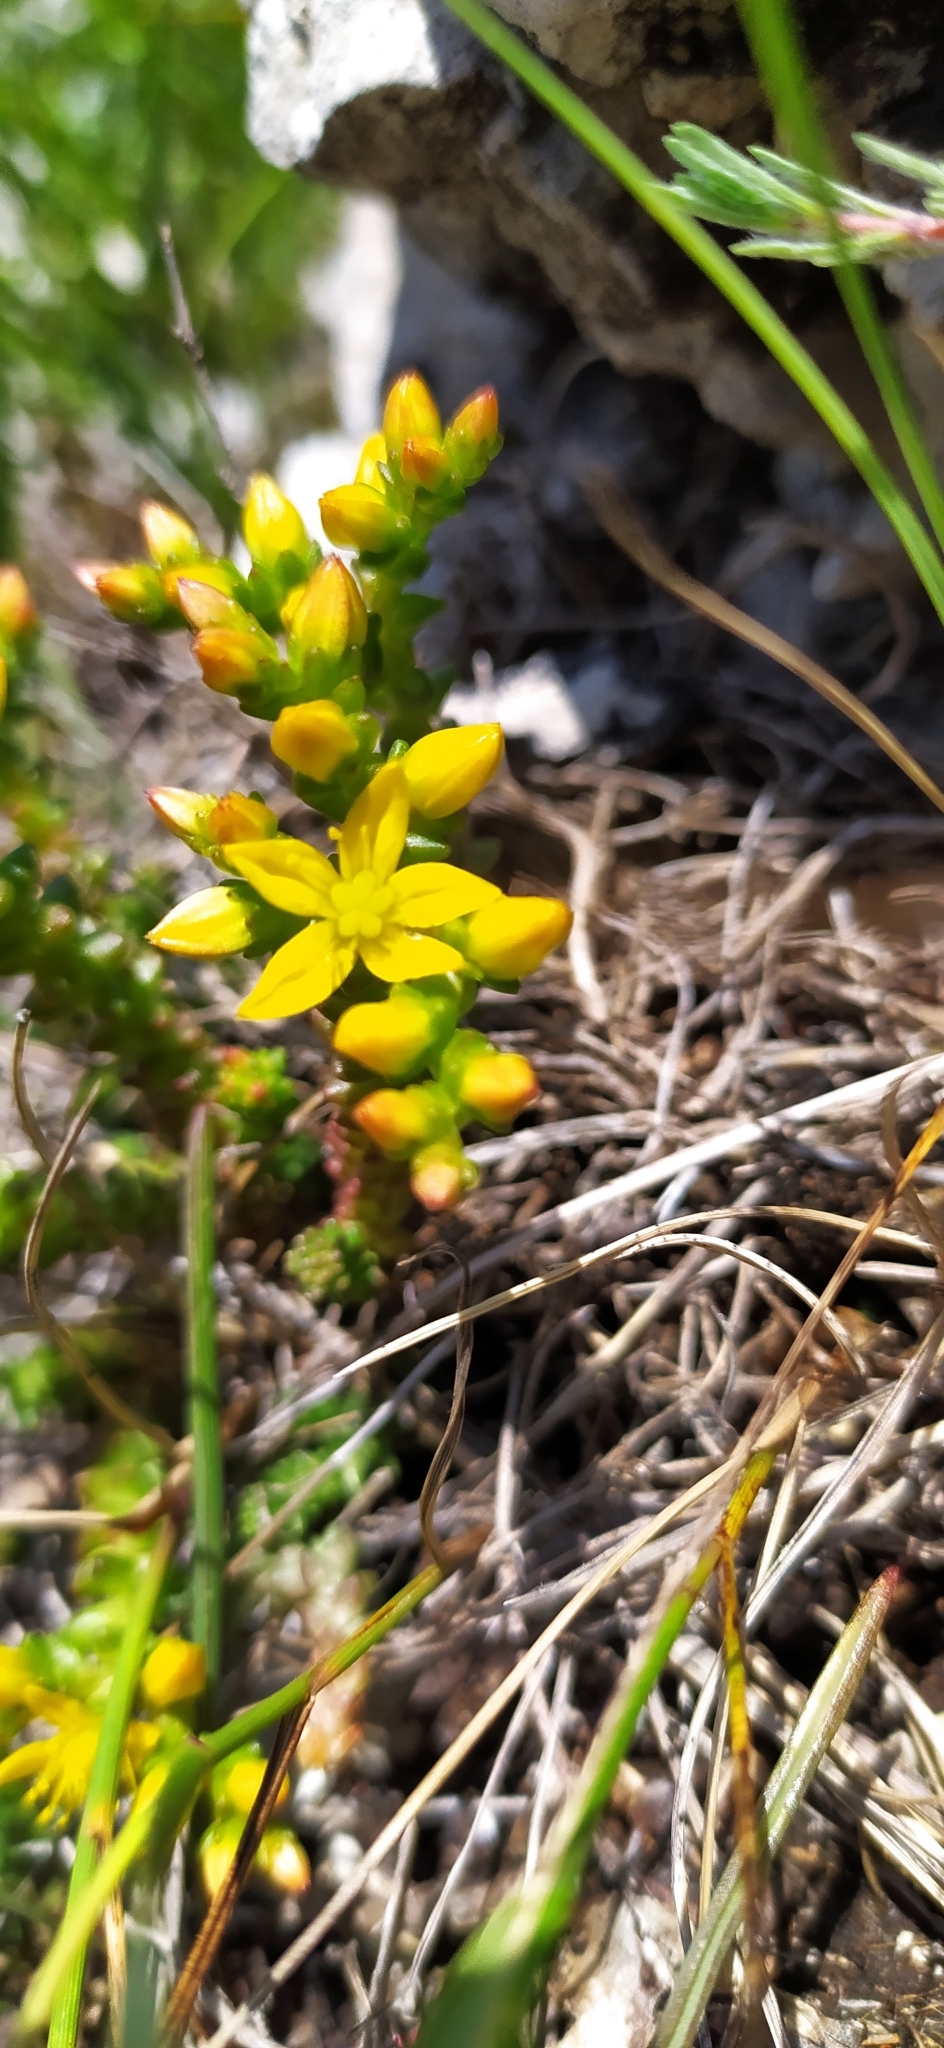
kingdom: Plantae
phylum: Tracheophyta
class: Magnoliopsida
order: Saxifragales
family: Crassulaceae
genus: Sedum
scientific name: Sedum acre
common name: Biting stonecrop
